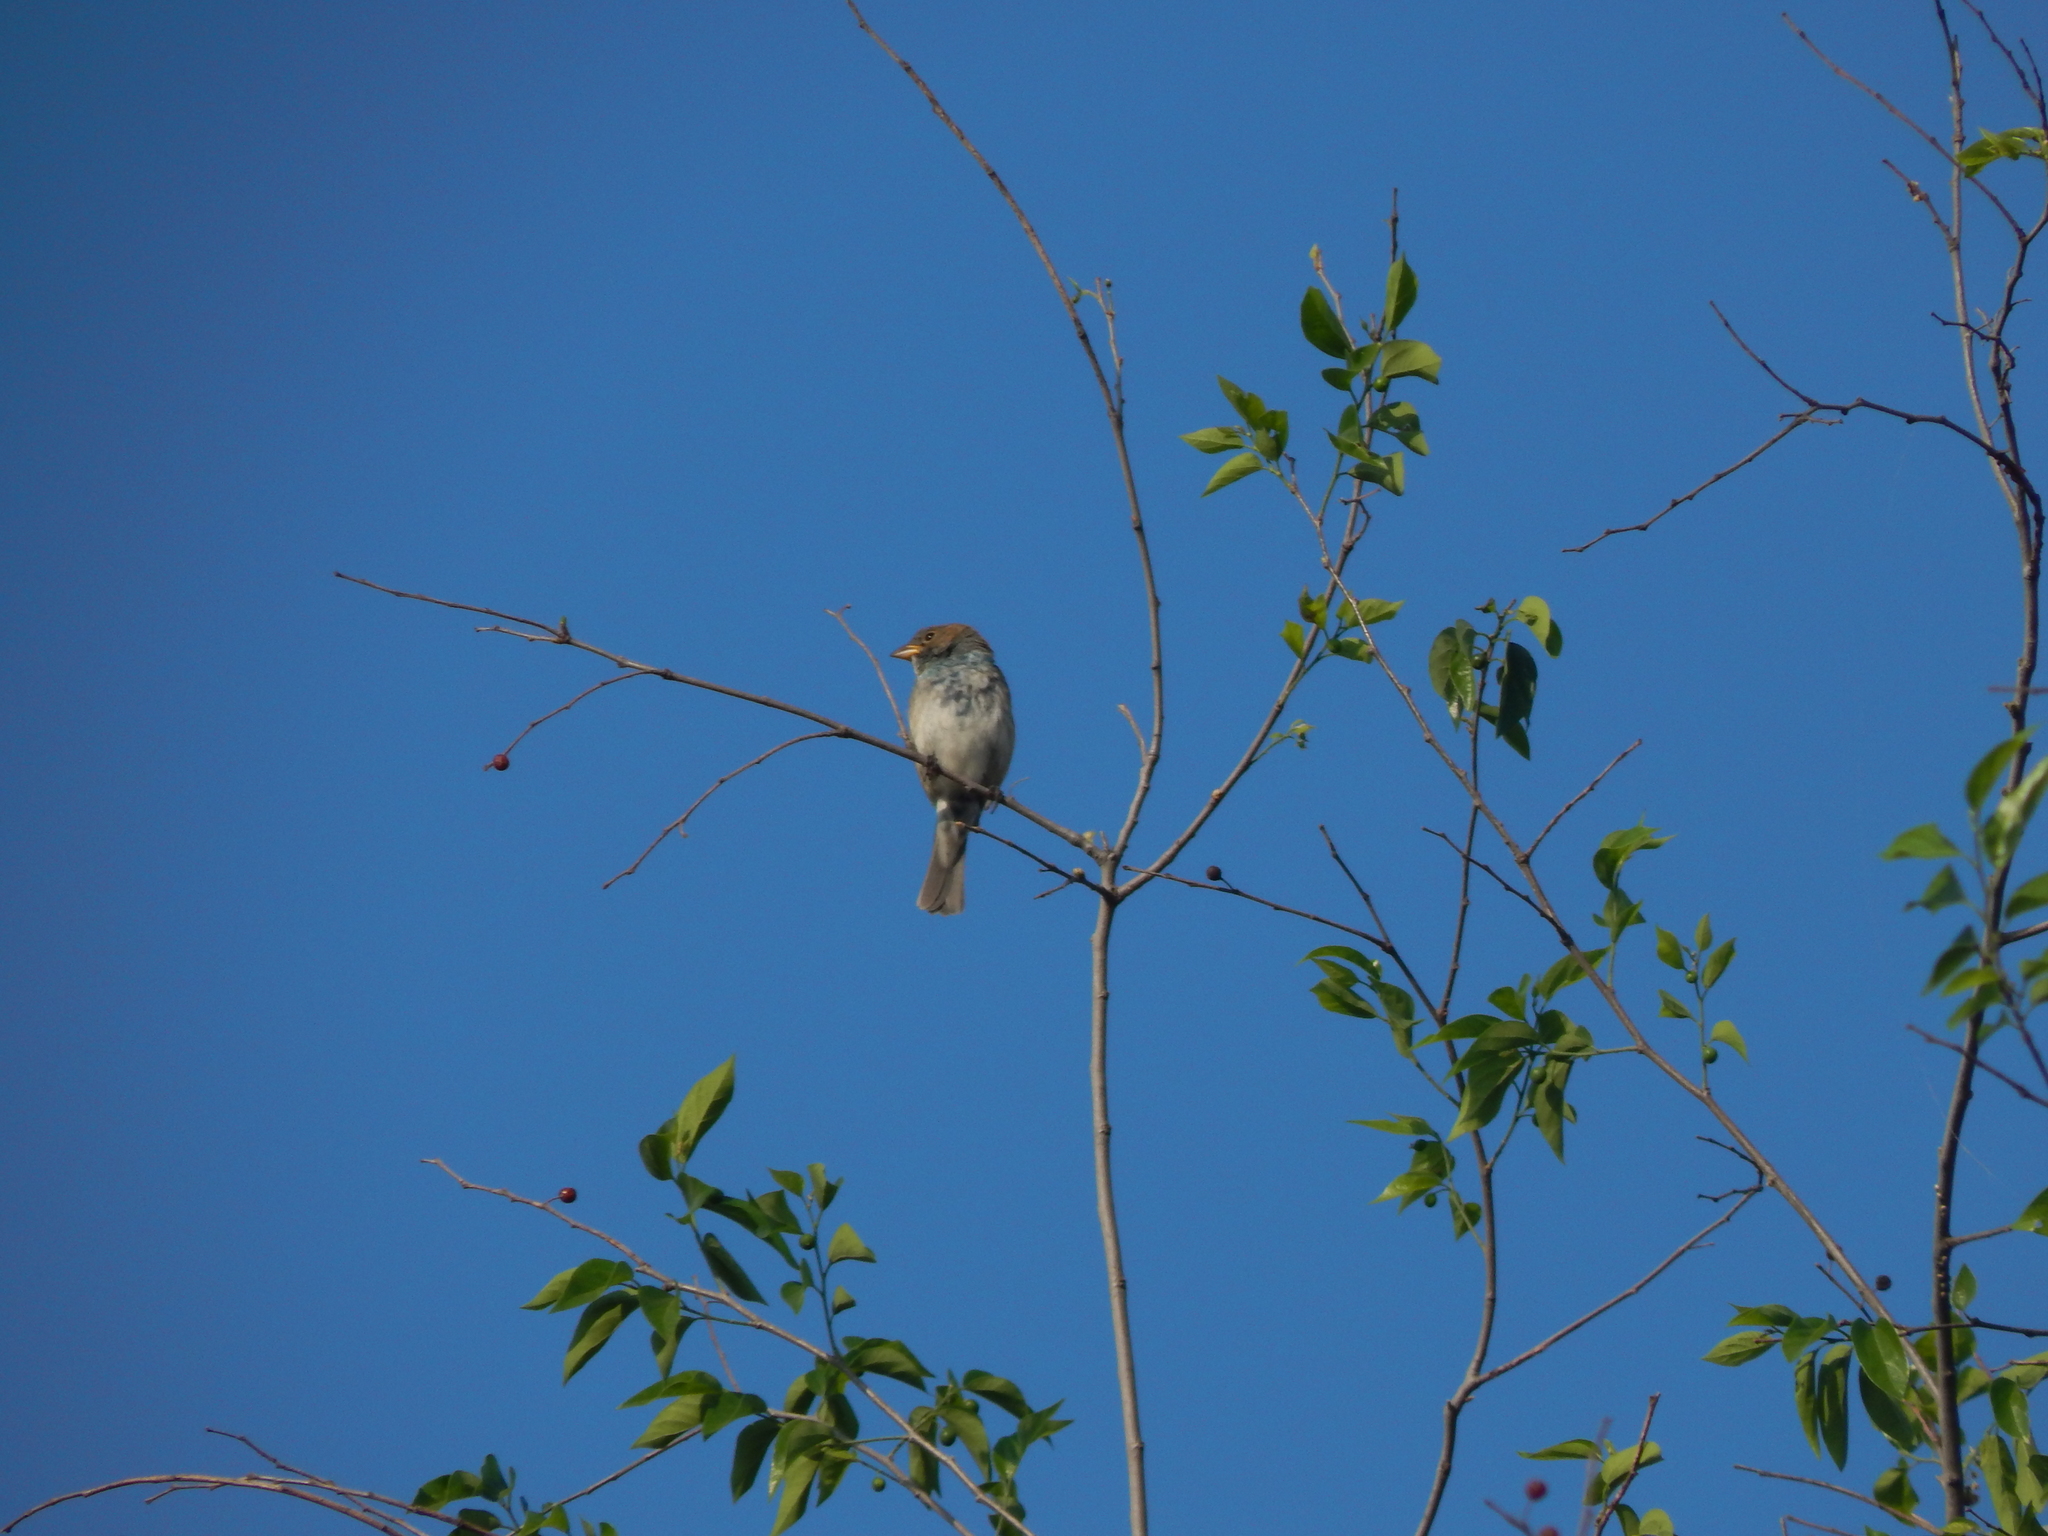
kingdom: Animalia
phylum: Chordata
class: Aves
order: Passeriformes
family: Cardinalidae
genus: Passerina
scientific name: Passerina cyanea
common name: Indigo bunting
